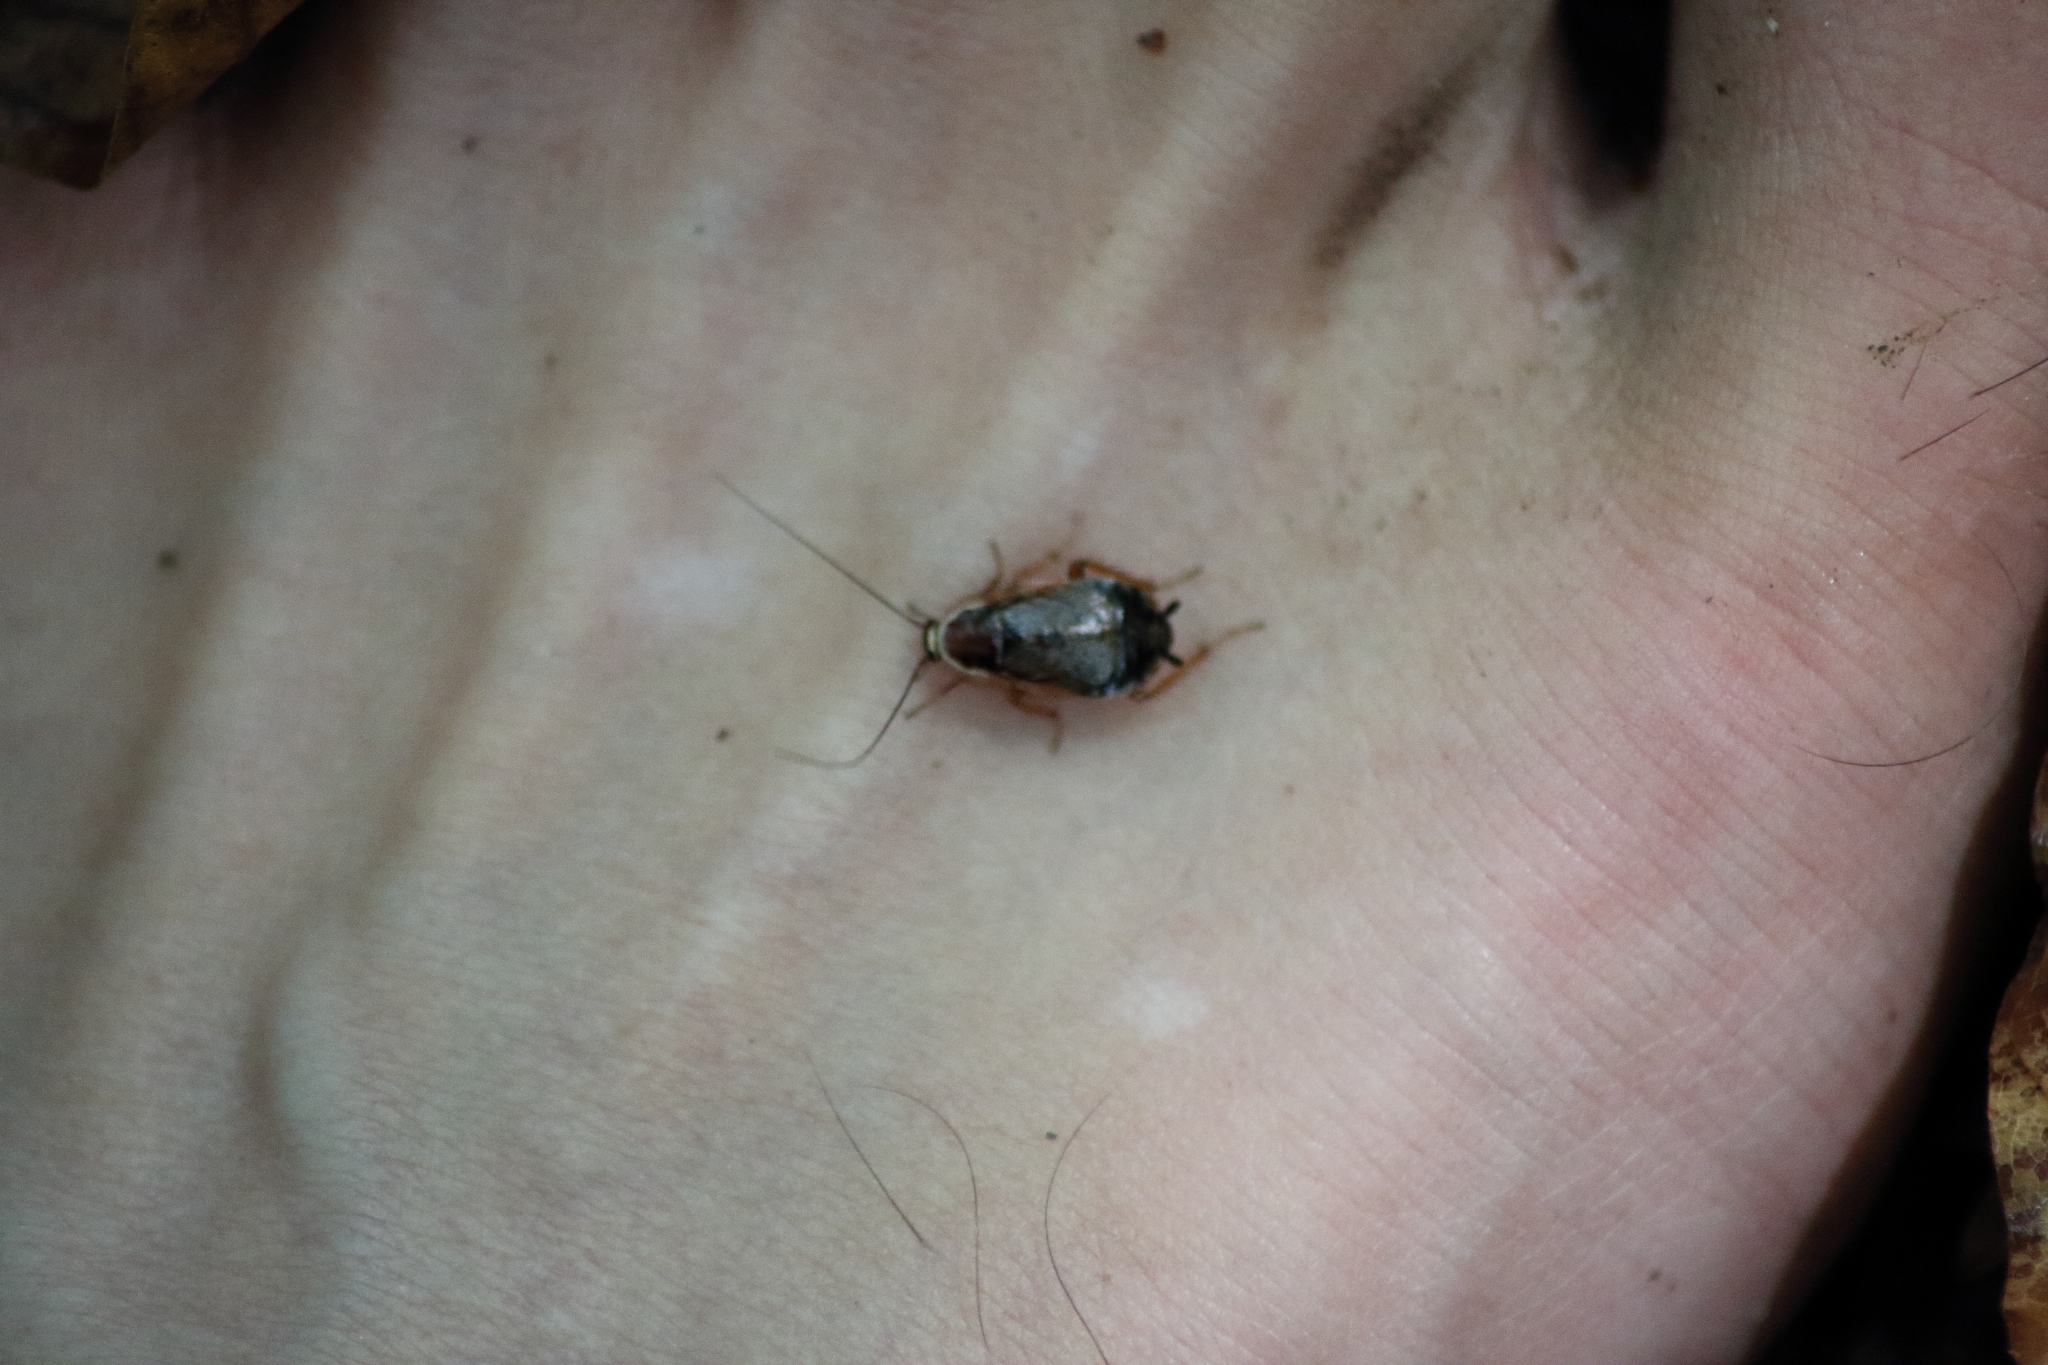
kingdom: Animalia
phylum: Arthropoda
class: Insecta
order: Blattodea
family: Ectobiidae
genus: Ectobius
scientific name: Ectobius sylvestris
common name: Forest cockroach
